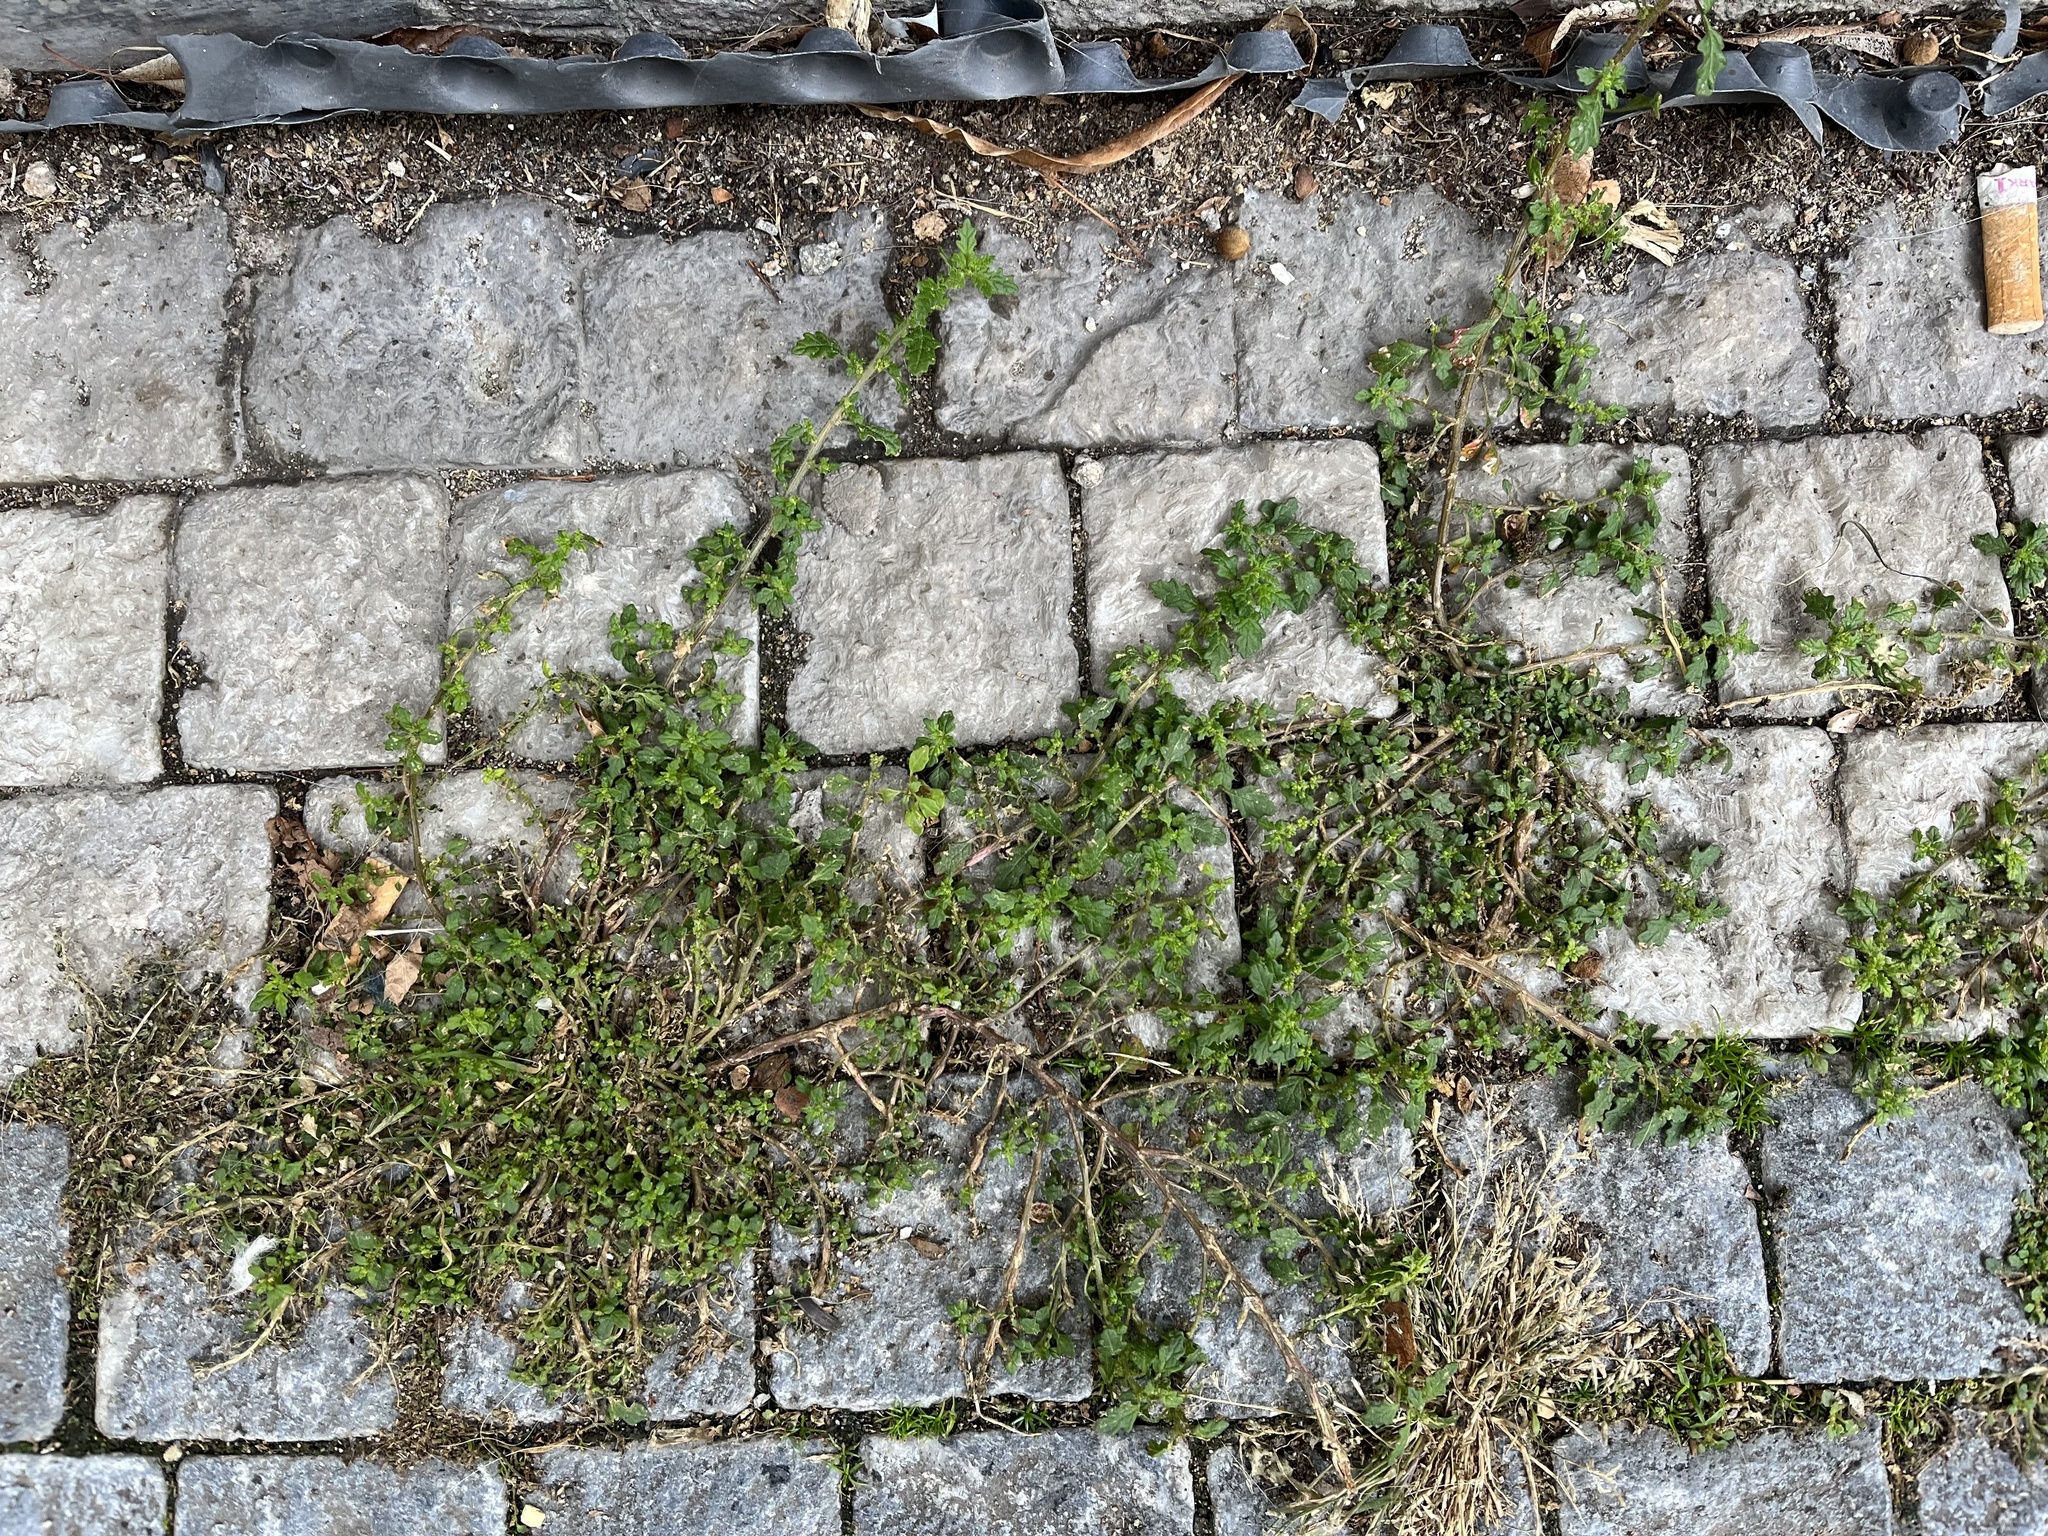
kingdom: Plantae
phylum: Tracheophyta
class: Magnoliopsida
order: Caryophyllales
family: Amaranthaceae
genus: Dysphania
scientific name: Dysphania pumilio
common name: Clammy goosefoot
